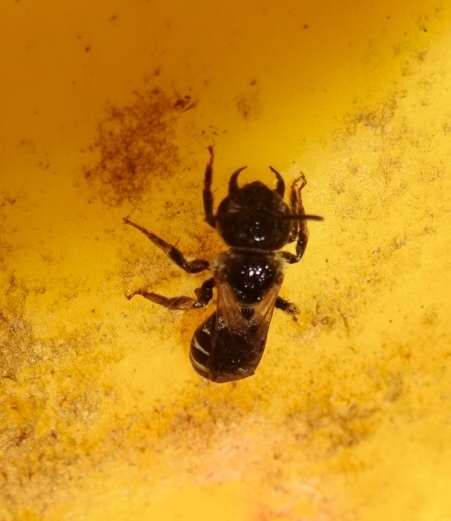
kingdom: Animalia
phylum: Arthropoda
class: Insecta
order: Hymenoptera
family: Halictidae
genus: Halictus
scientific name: Halictus ligatus
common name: Ligated furrow bee
